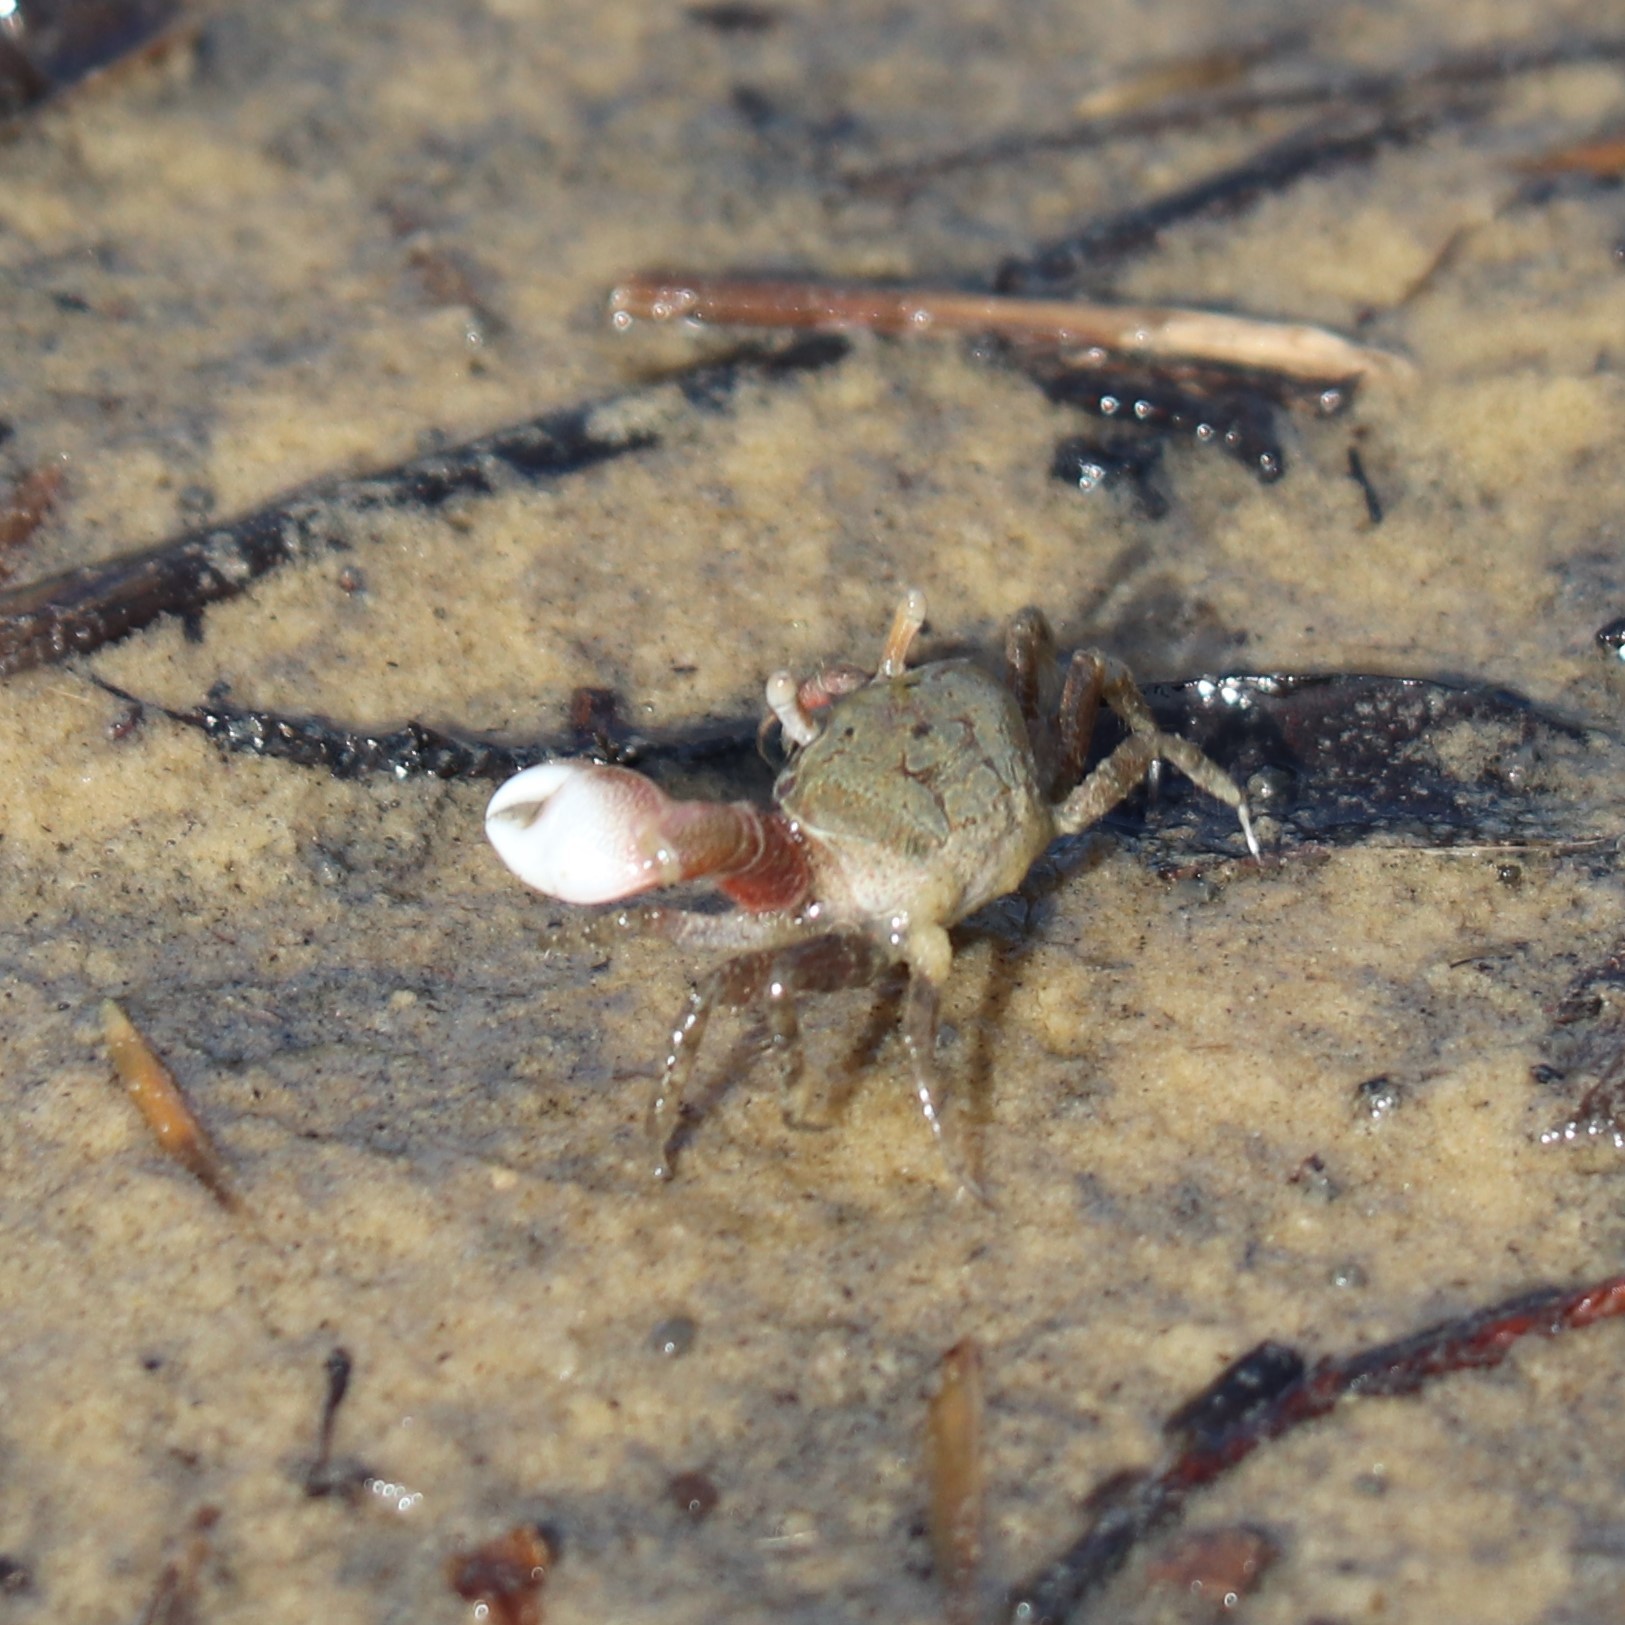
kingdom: Animalia
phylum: Arthropoda
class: Malacostraca
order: Decapoda
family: Ocypodidae
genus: Leptuca
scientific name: Leptuca pugilator
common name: Atlantic sand fiddler crab
